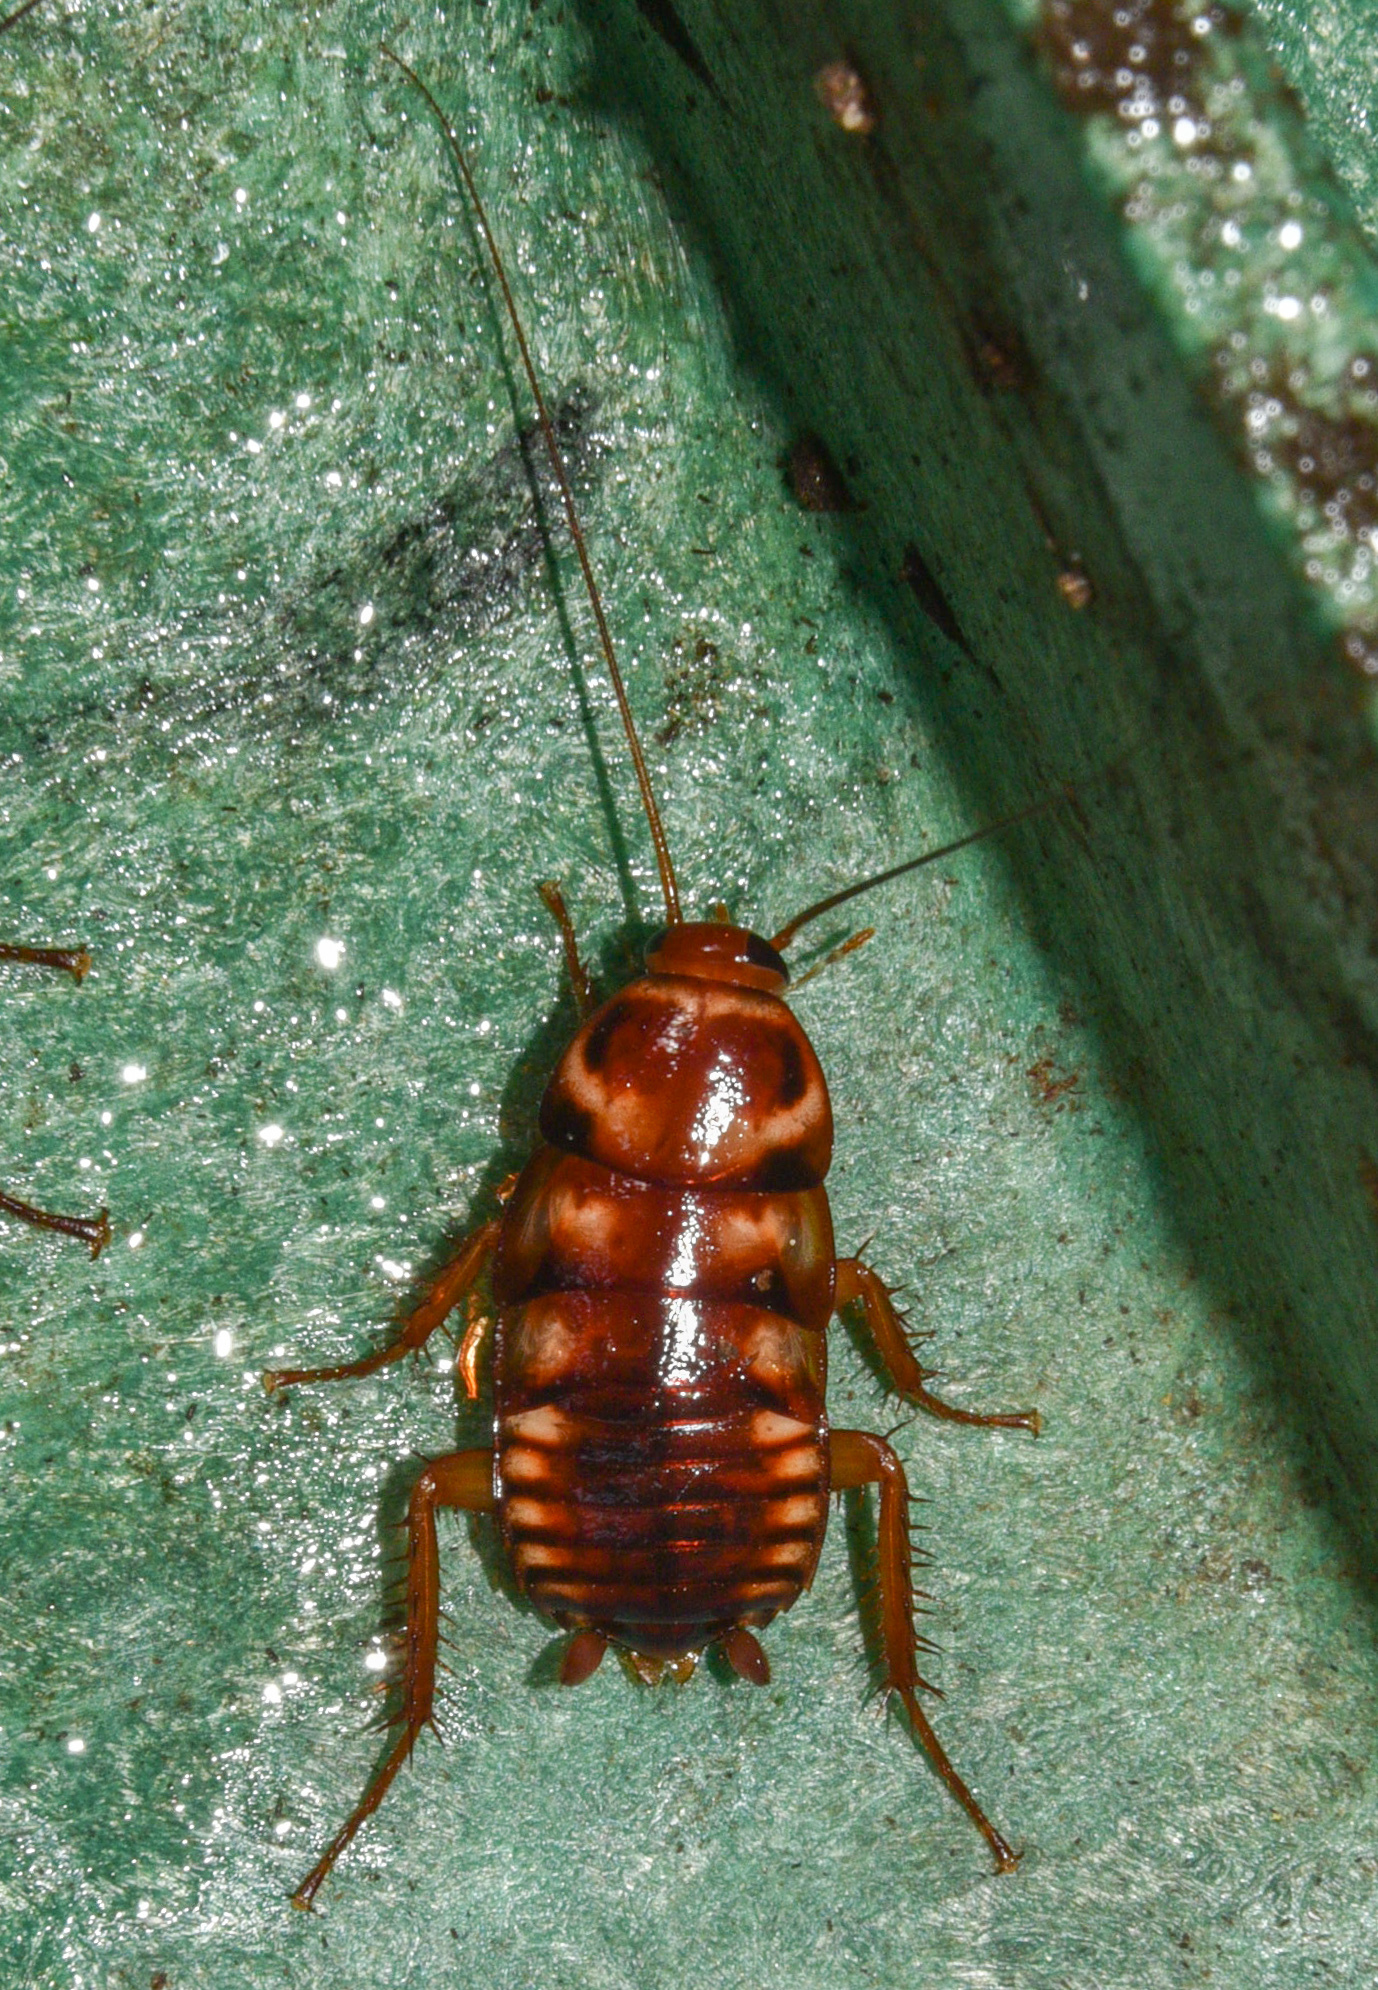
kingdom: Animalia
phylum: Arthropoda
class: Insecta
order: Blattodea
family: Blattidae
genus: Periplaneta
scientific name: Periplaneta australasiae
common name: Australian cockroach
